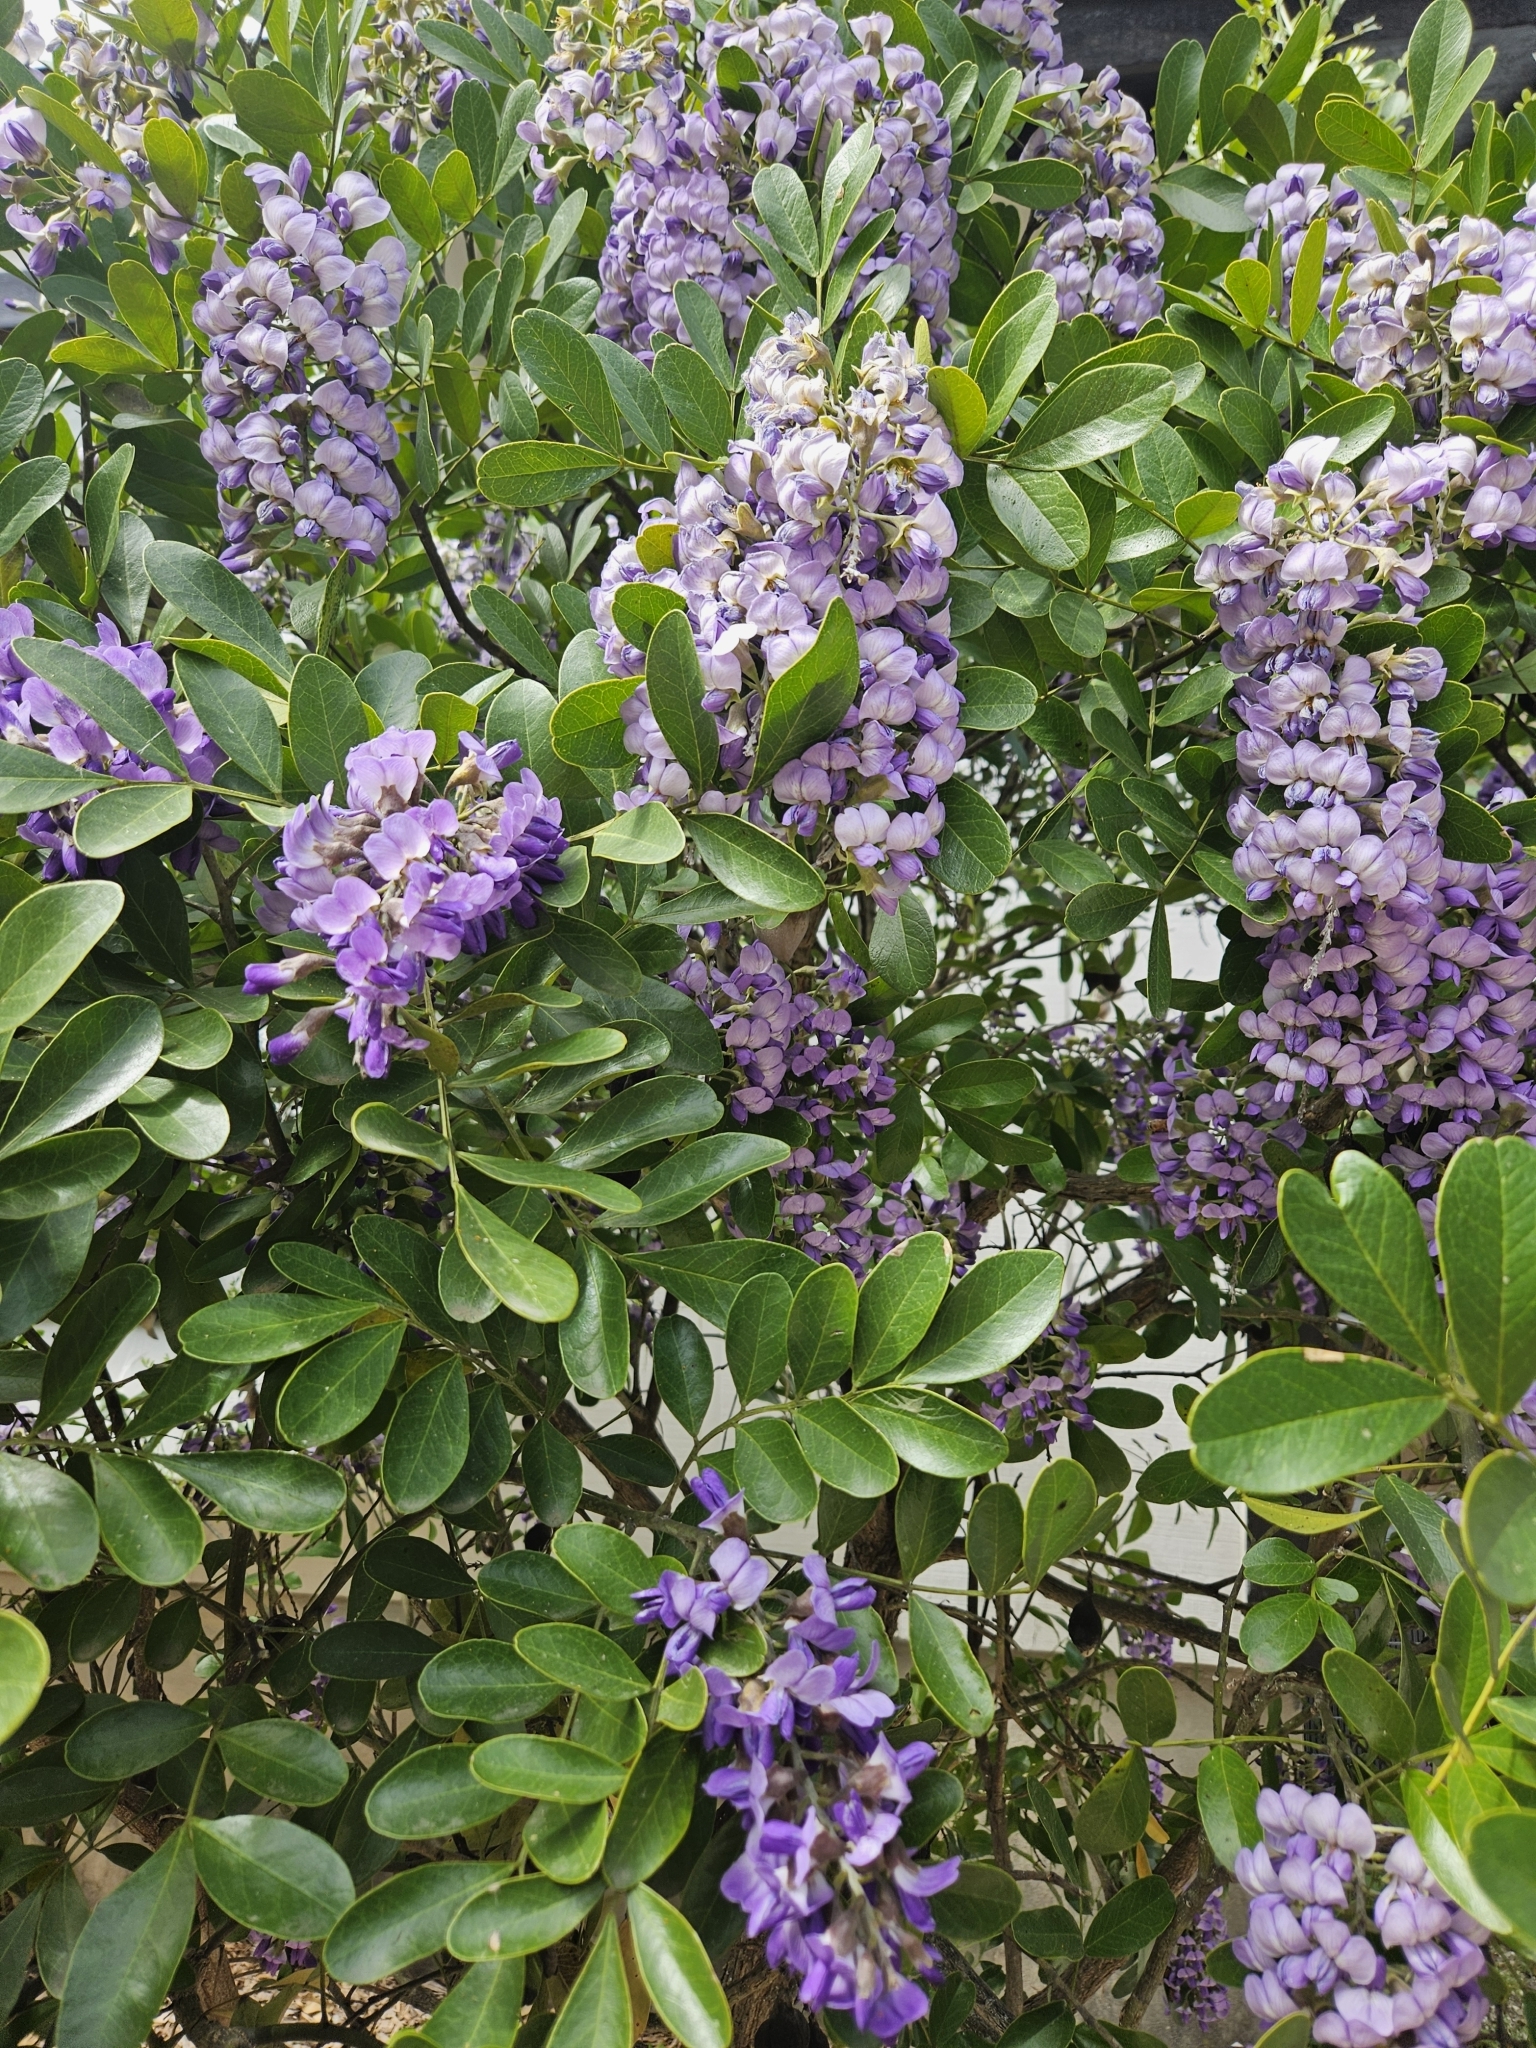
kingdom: Plantae
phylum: Tracheophyta
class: Magnoliopsida
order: Fabales
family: Fabaceae
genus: Dermatophyllum
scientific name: Dermatophyllum secundiflorum
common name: Texas-mountain-laurel
